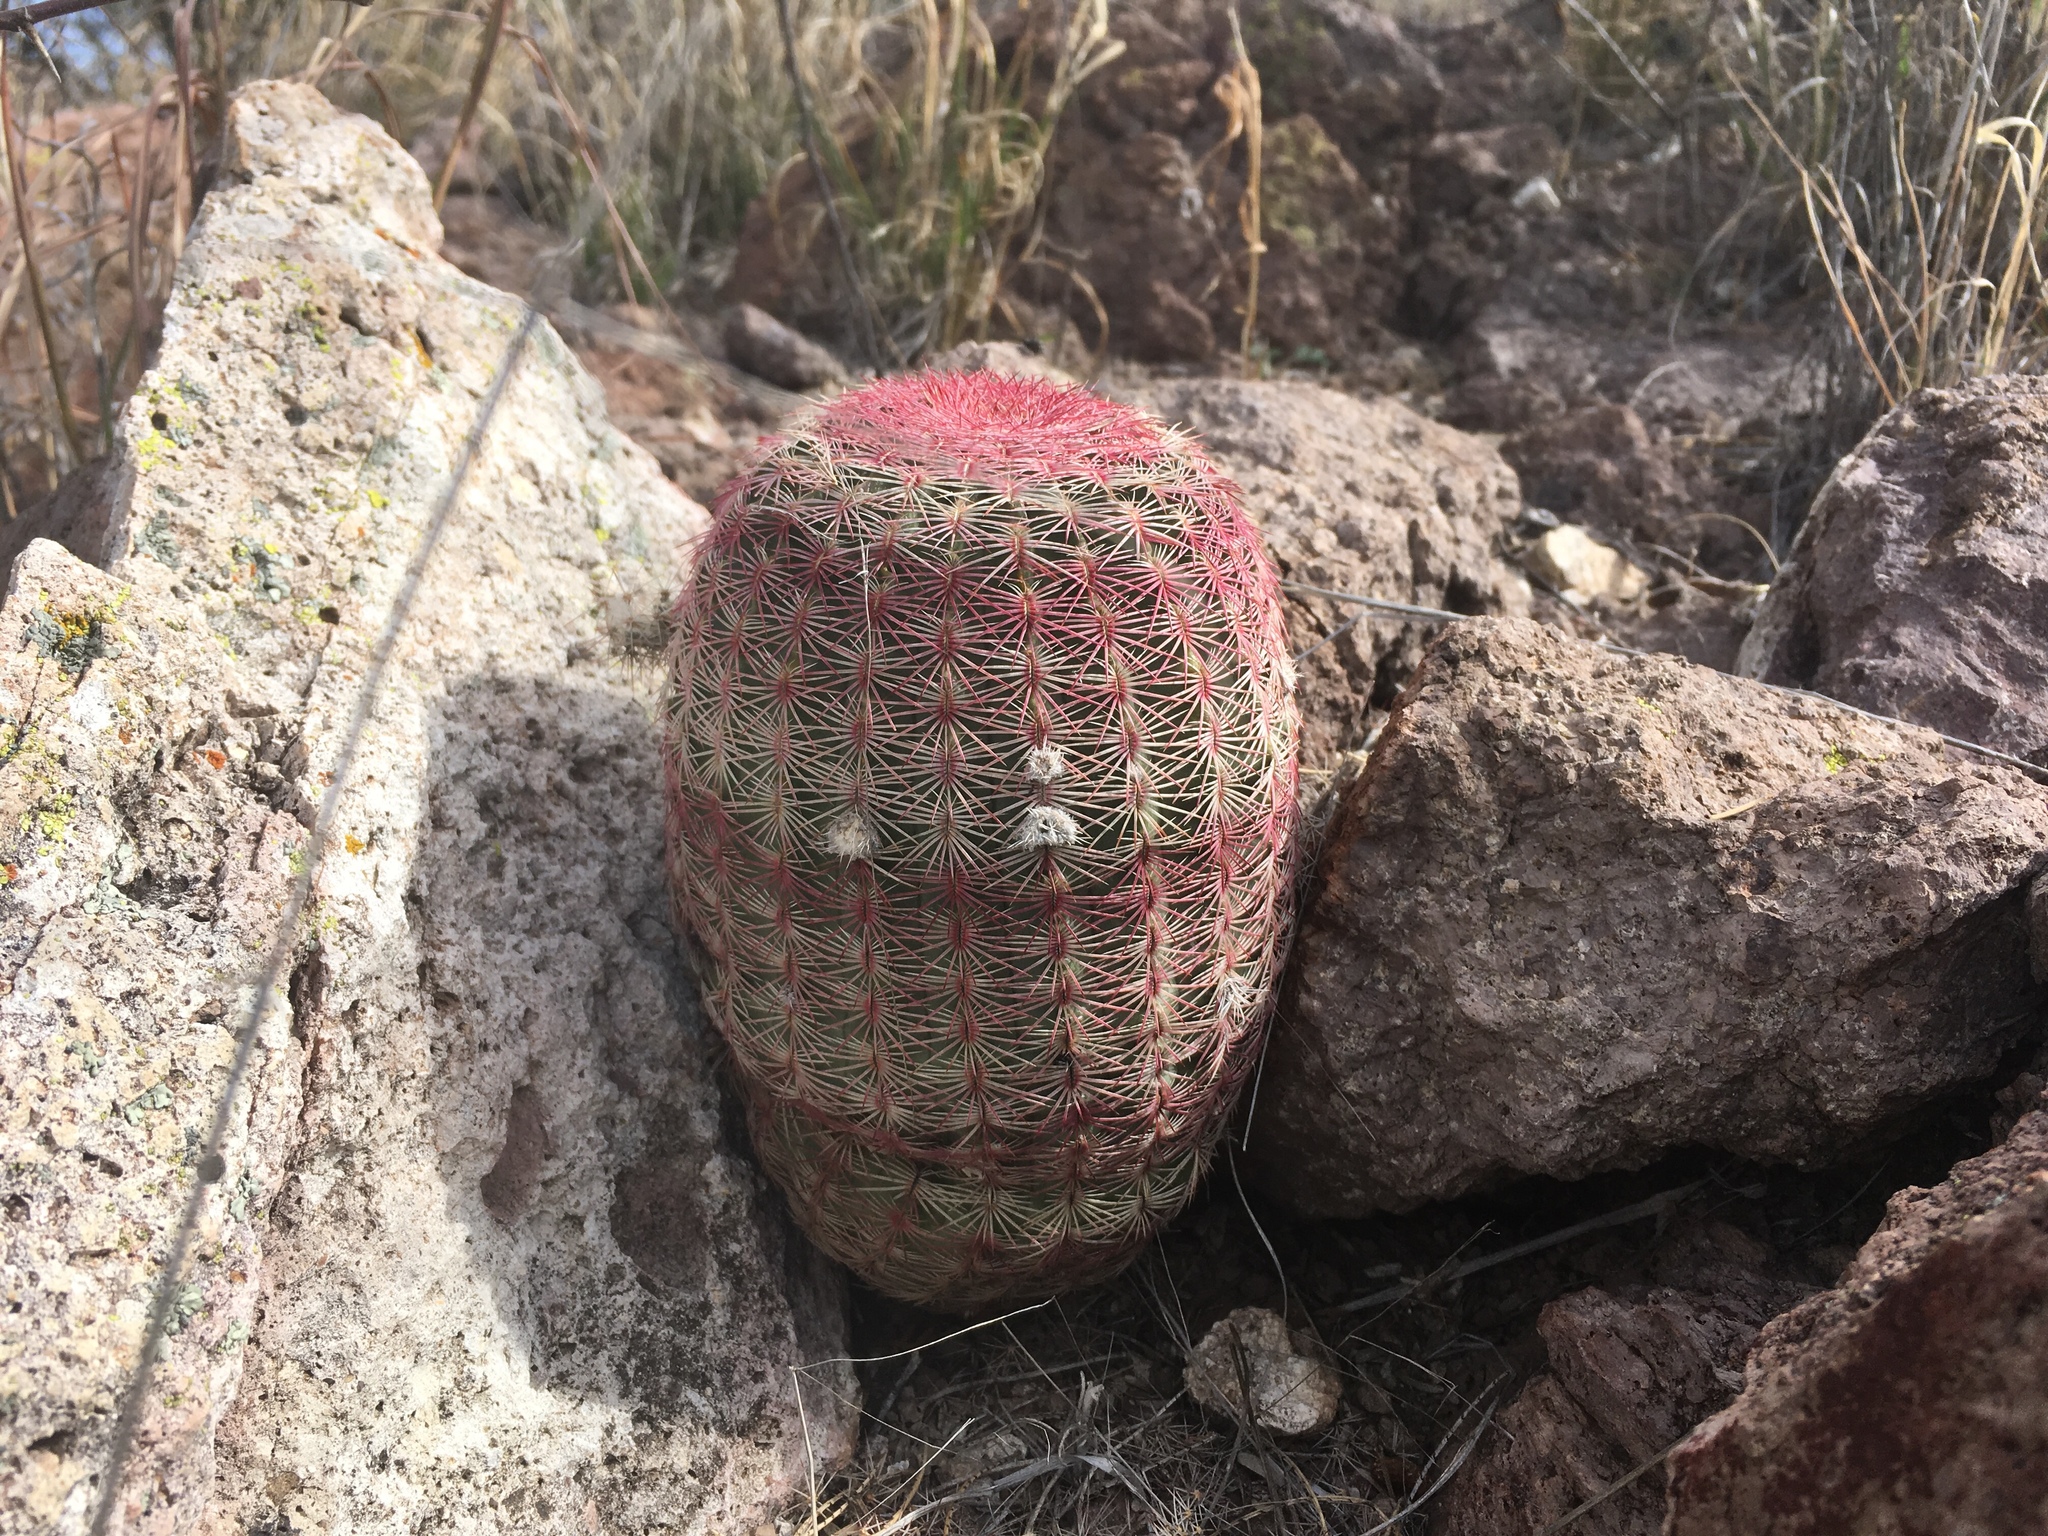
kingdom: Plantae
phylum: Tracheophyta
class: Magnoliopsida
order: Caryophyllales
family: Cactaceae
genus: Echinocereus
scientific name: Echinocereus rigidissimus
